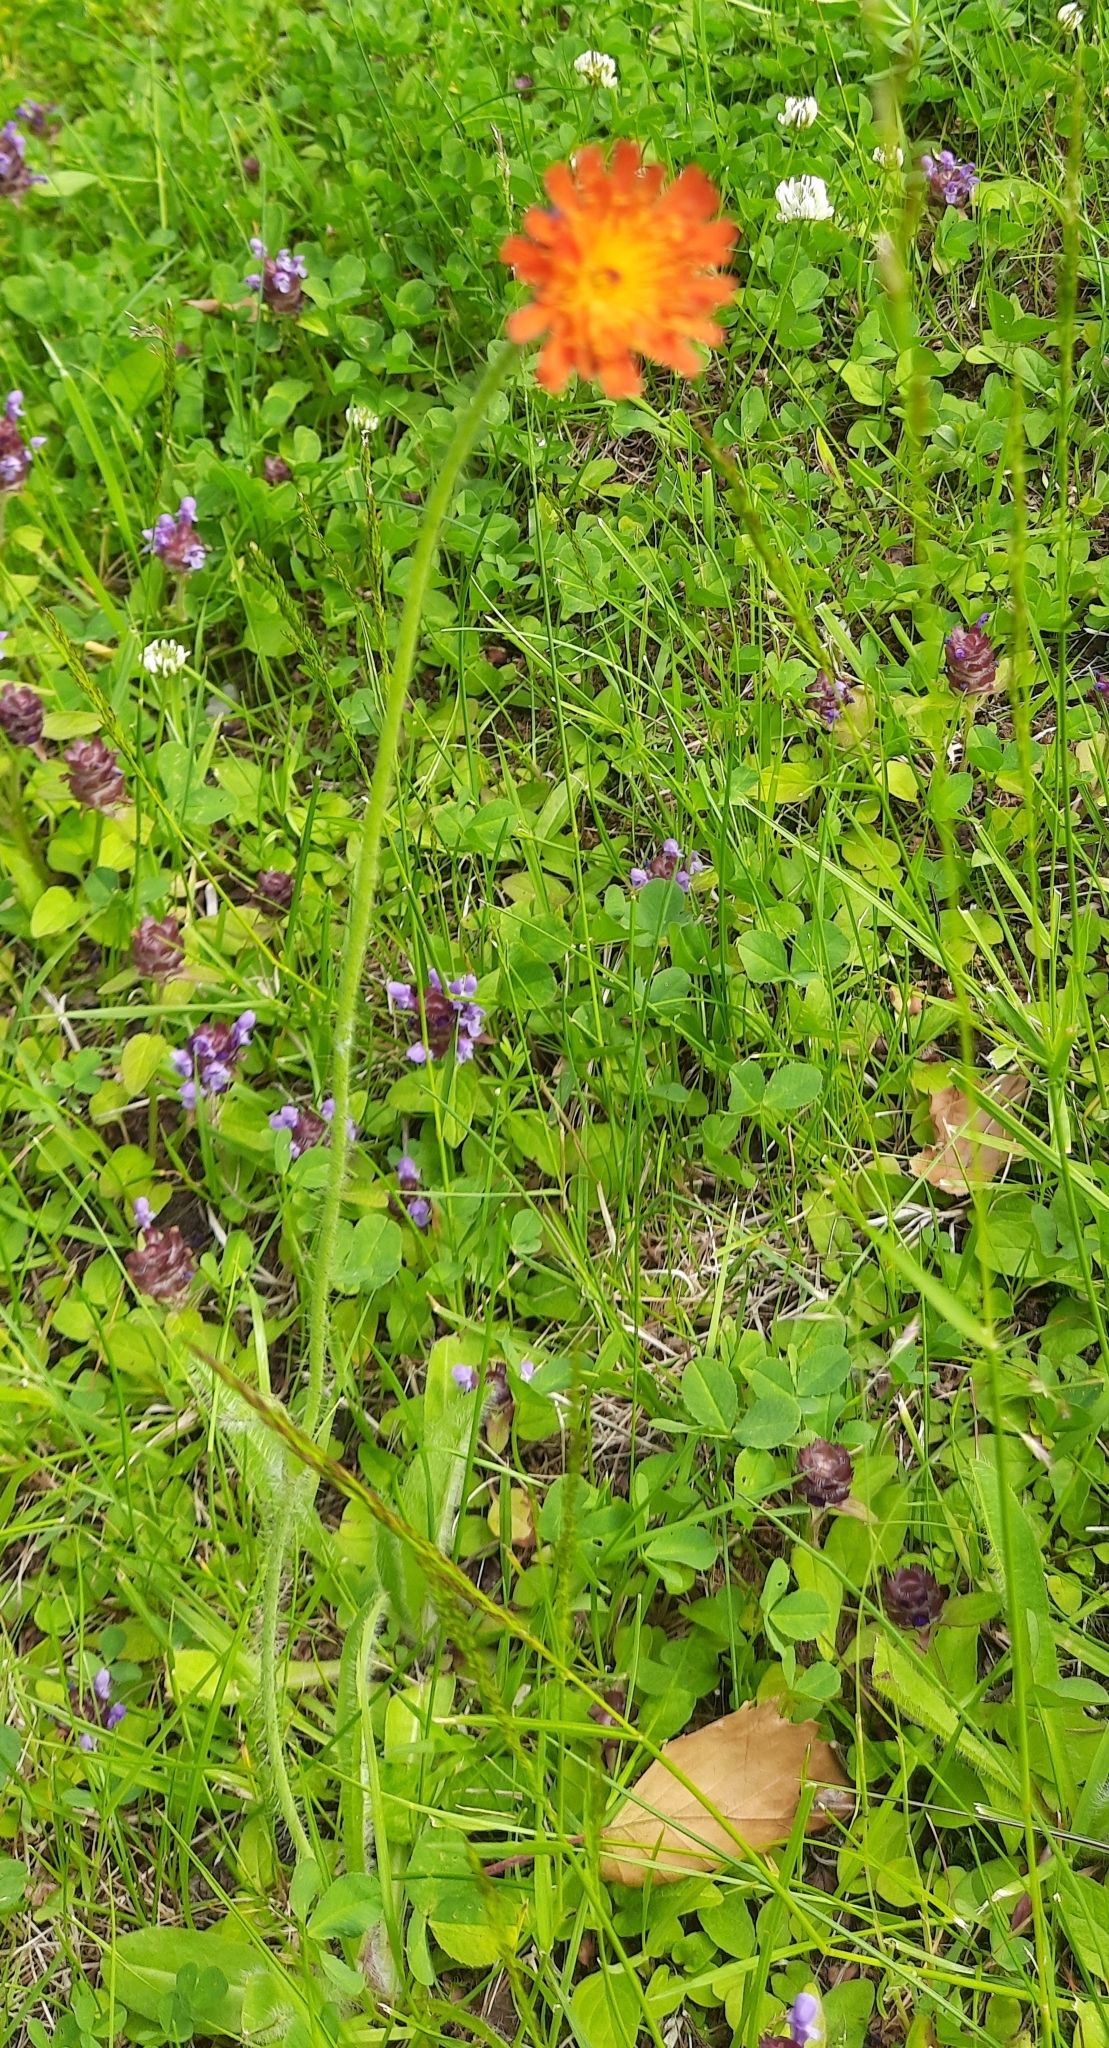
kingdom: Plantae
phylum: Tracheophyta
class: Magnoliopsida
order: Asterales
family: Asteraceae
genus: Pilosella
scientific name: Pilosella aurantiaca
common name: Fox-and-cubs
